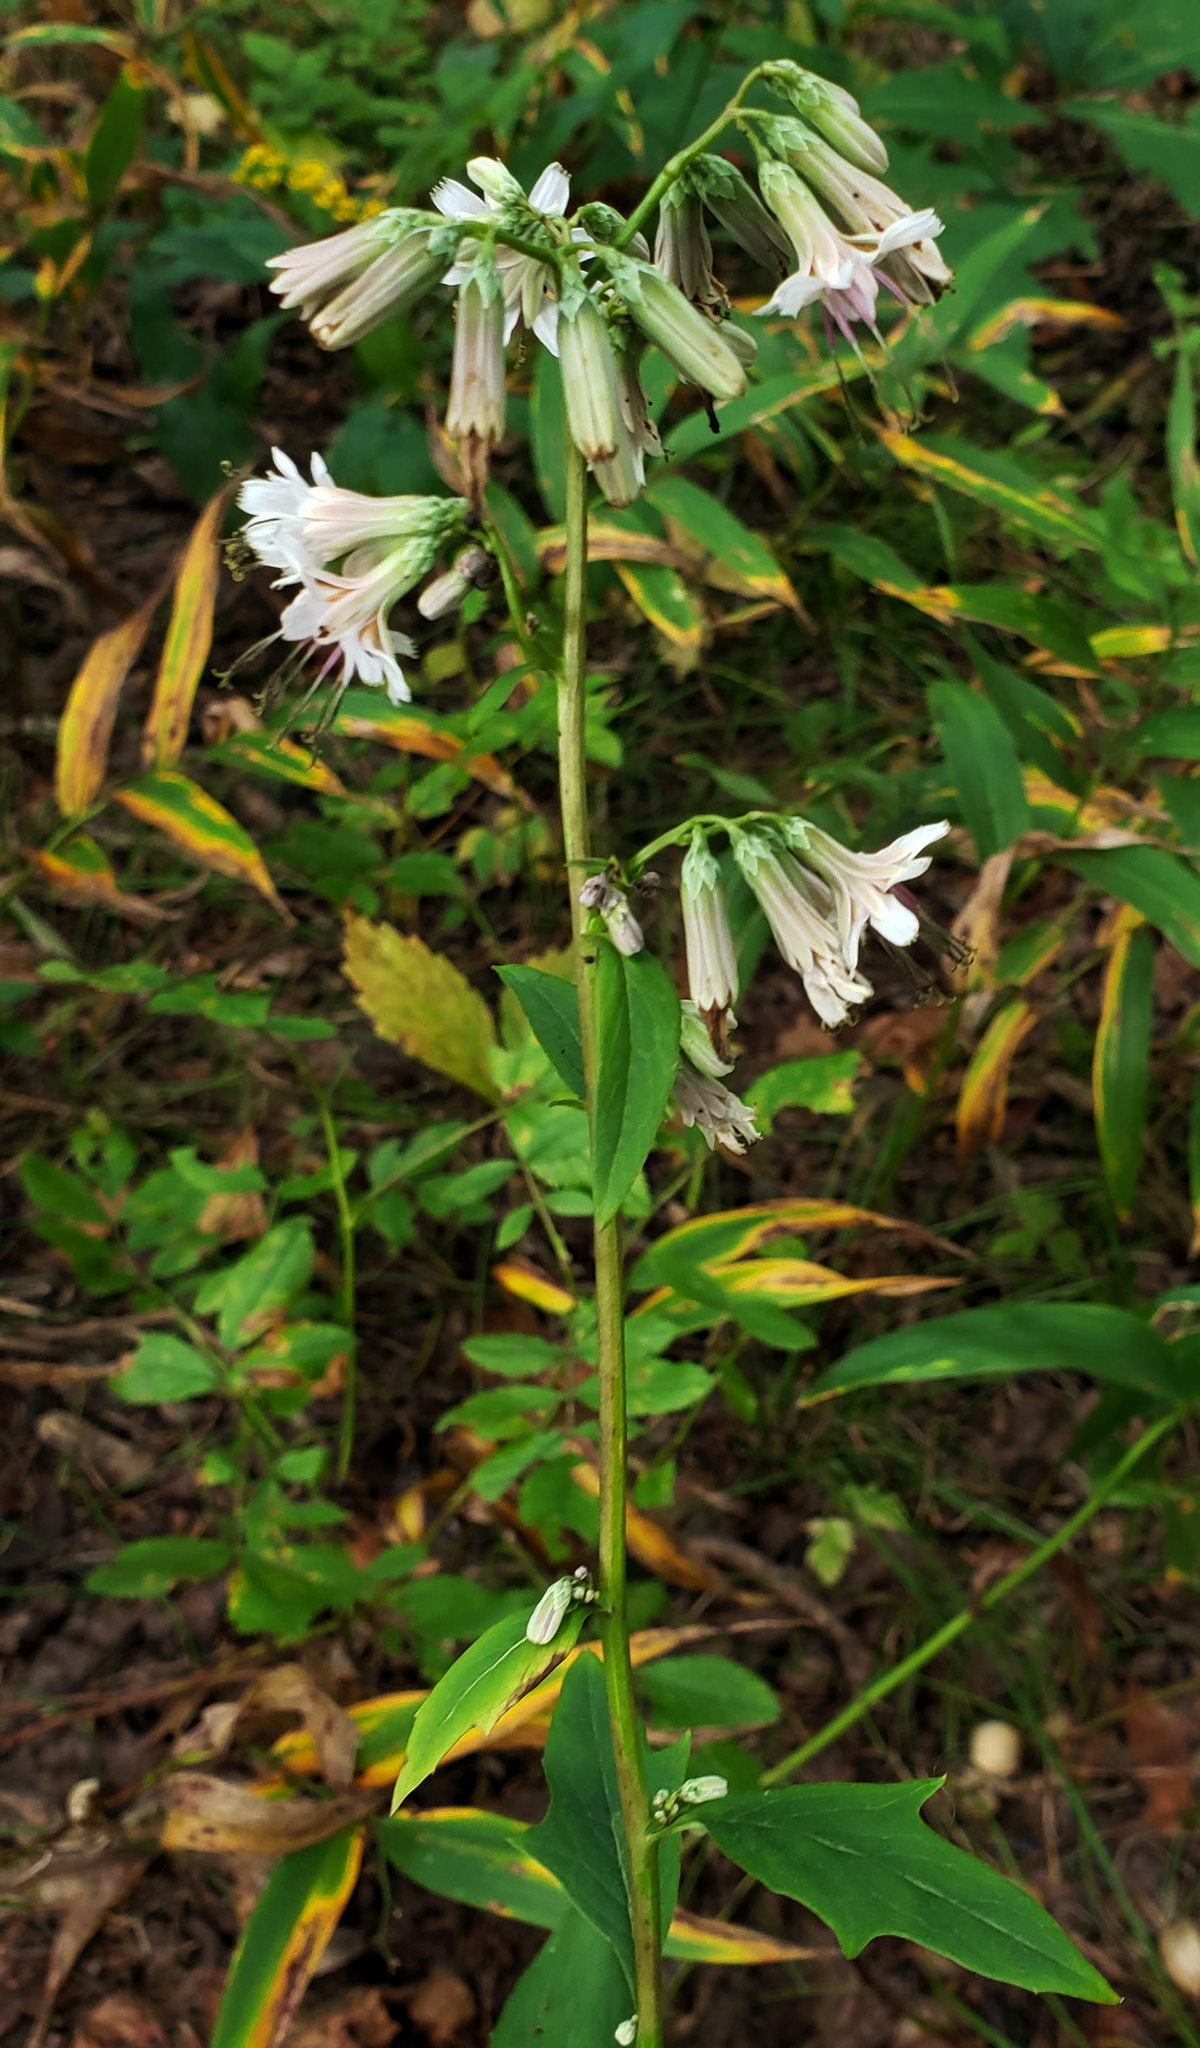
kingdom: Plantae
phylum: Tracheophyta
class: Magnoliopsida
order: Asterales
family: Asteraceae
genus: Nabalus
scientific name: Nabalus albus
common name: White rattlesnakeroot
